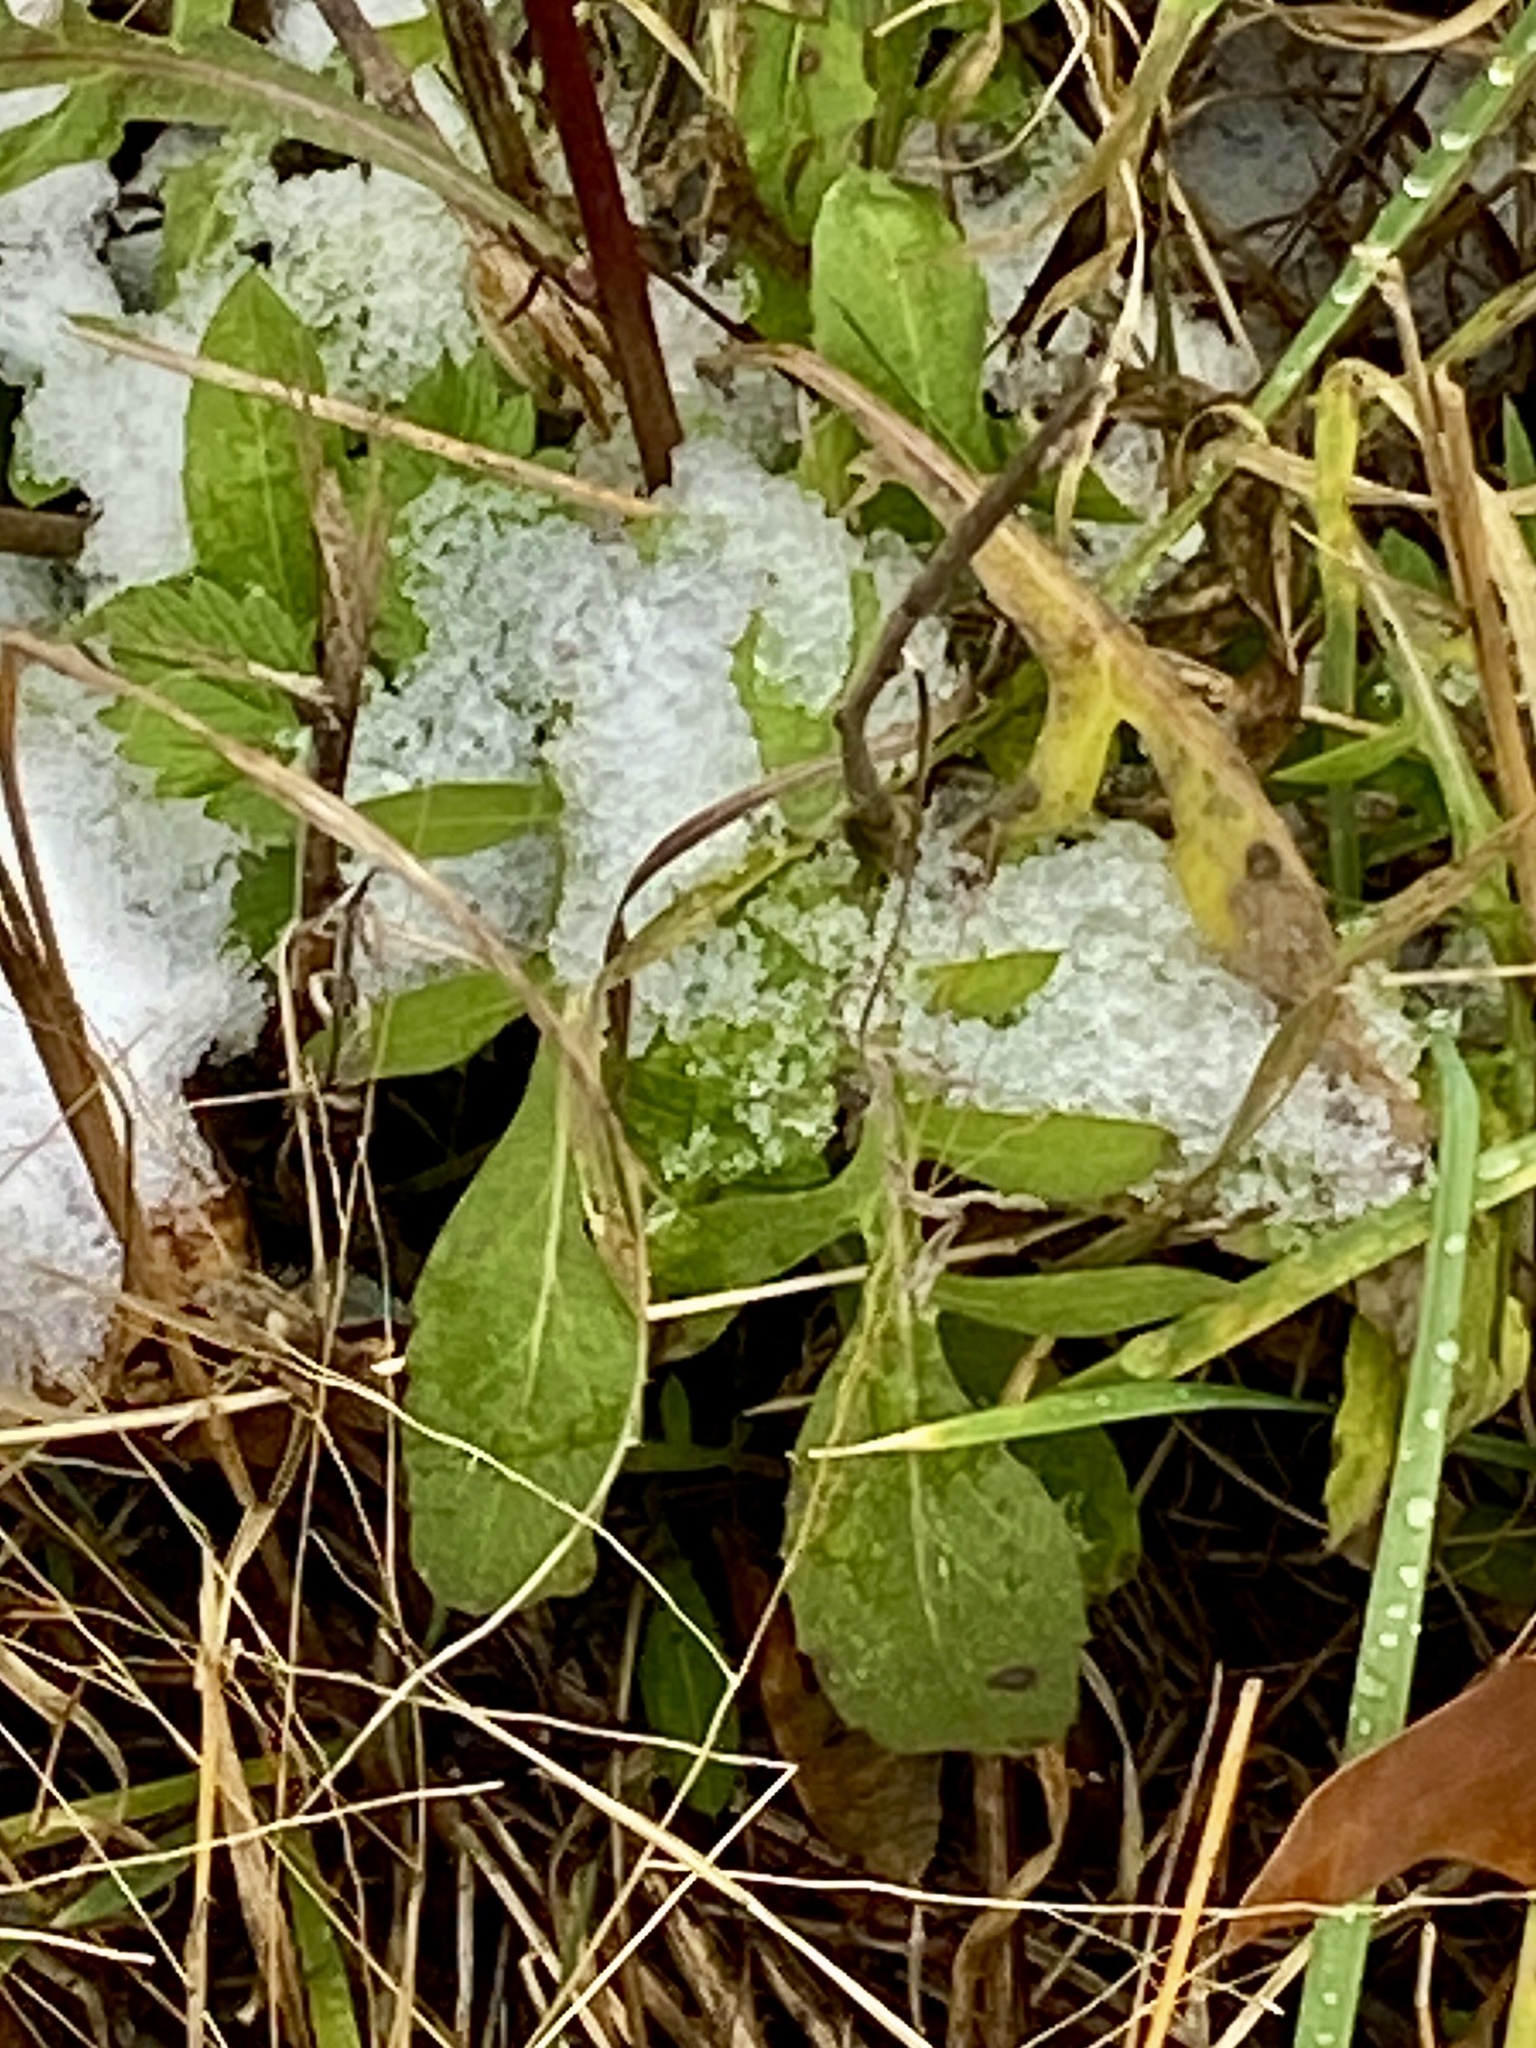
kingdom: Plantae
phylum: Tracheophyta
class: Magnoliopsida
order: Asterales
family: Asteraceae
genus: Centaurea
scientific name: Centaurea stoebe
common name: Spotted knapweed
